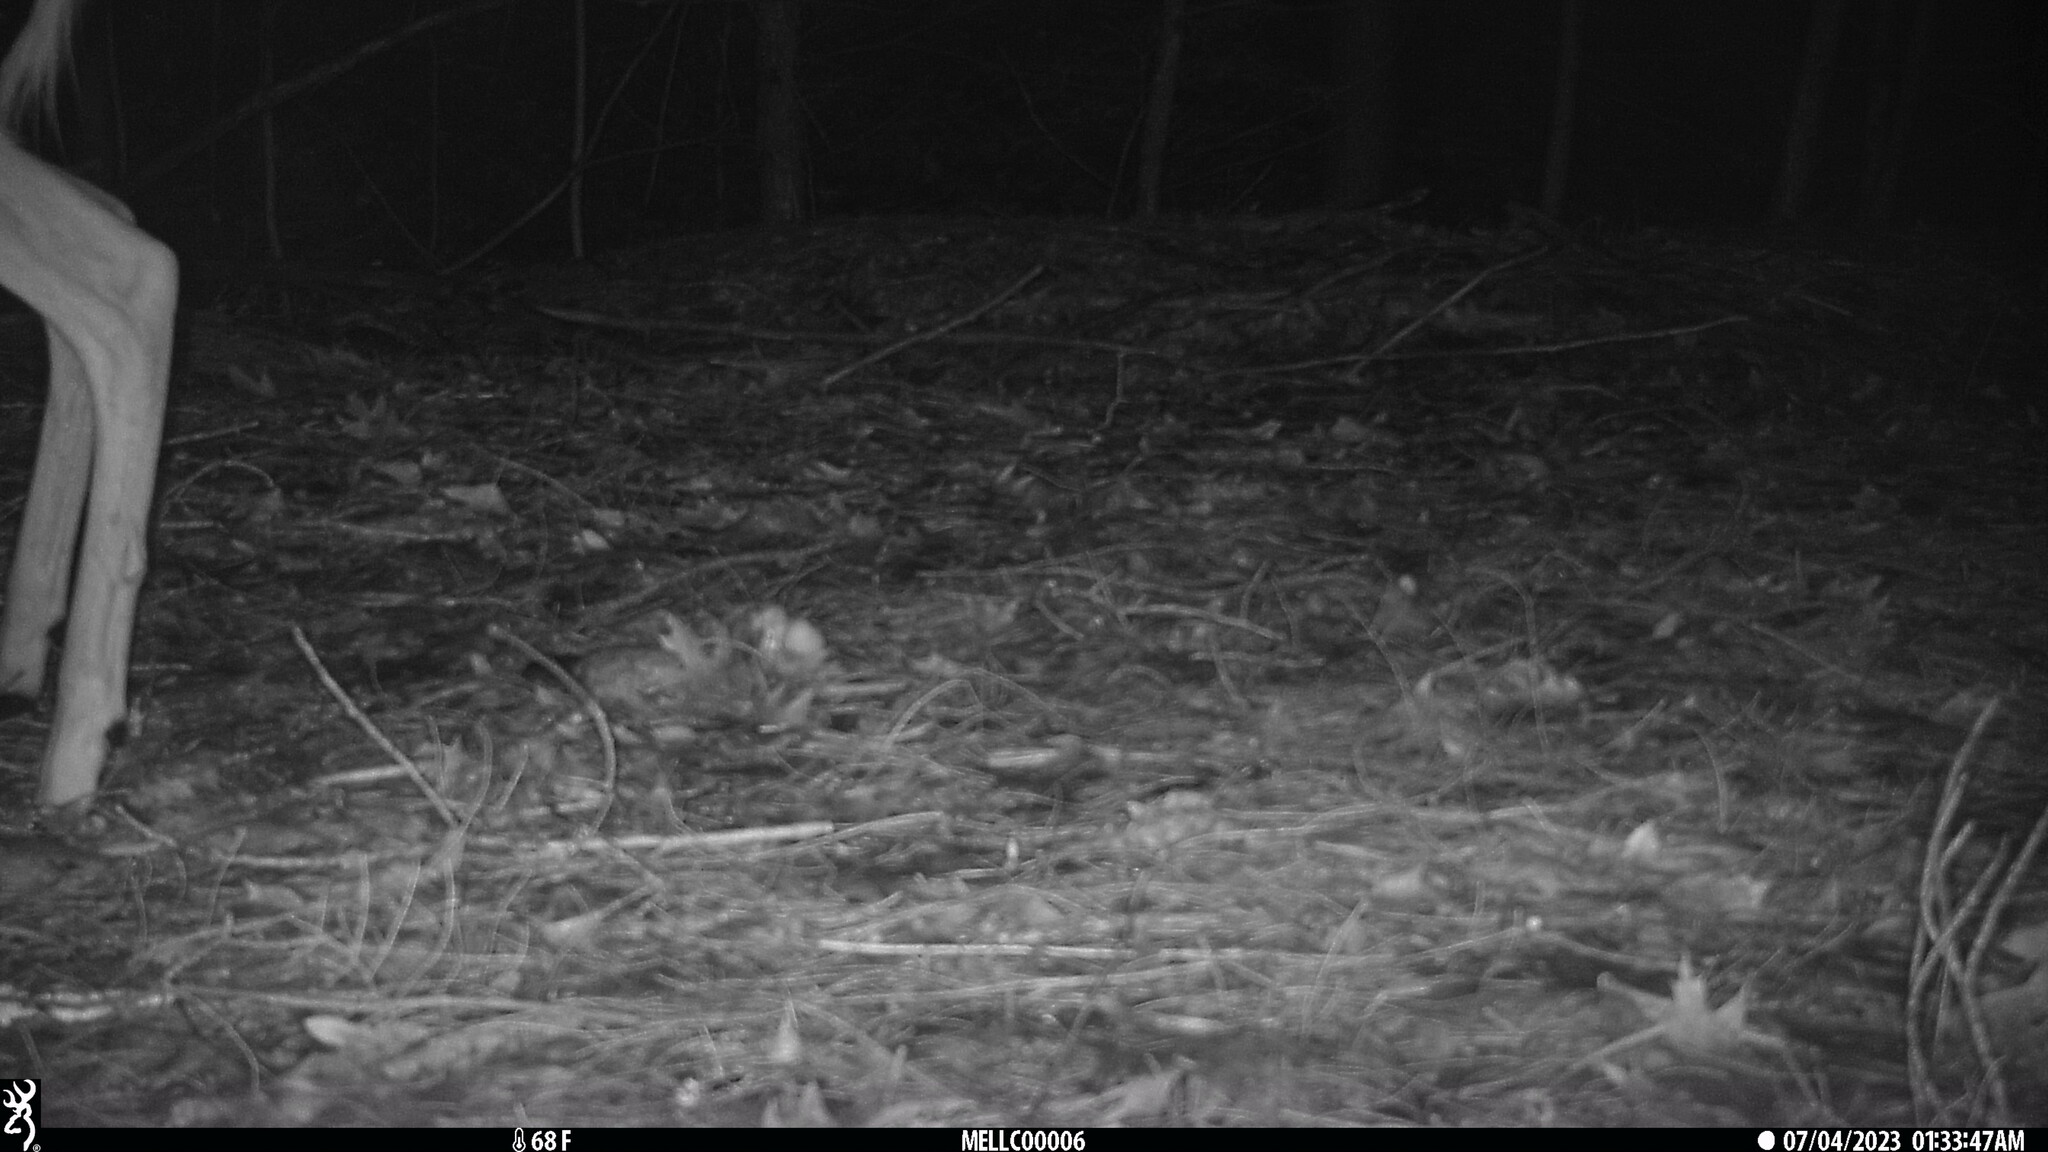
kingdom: Animalia
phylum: Chordata
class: Mammalia
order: Artiodactyla
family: Cervidae
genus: Odocoileus
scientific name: Odocoileus virginianus
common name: White-tailed deer
